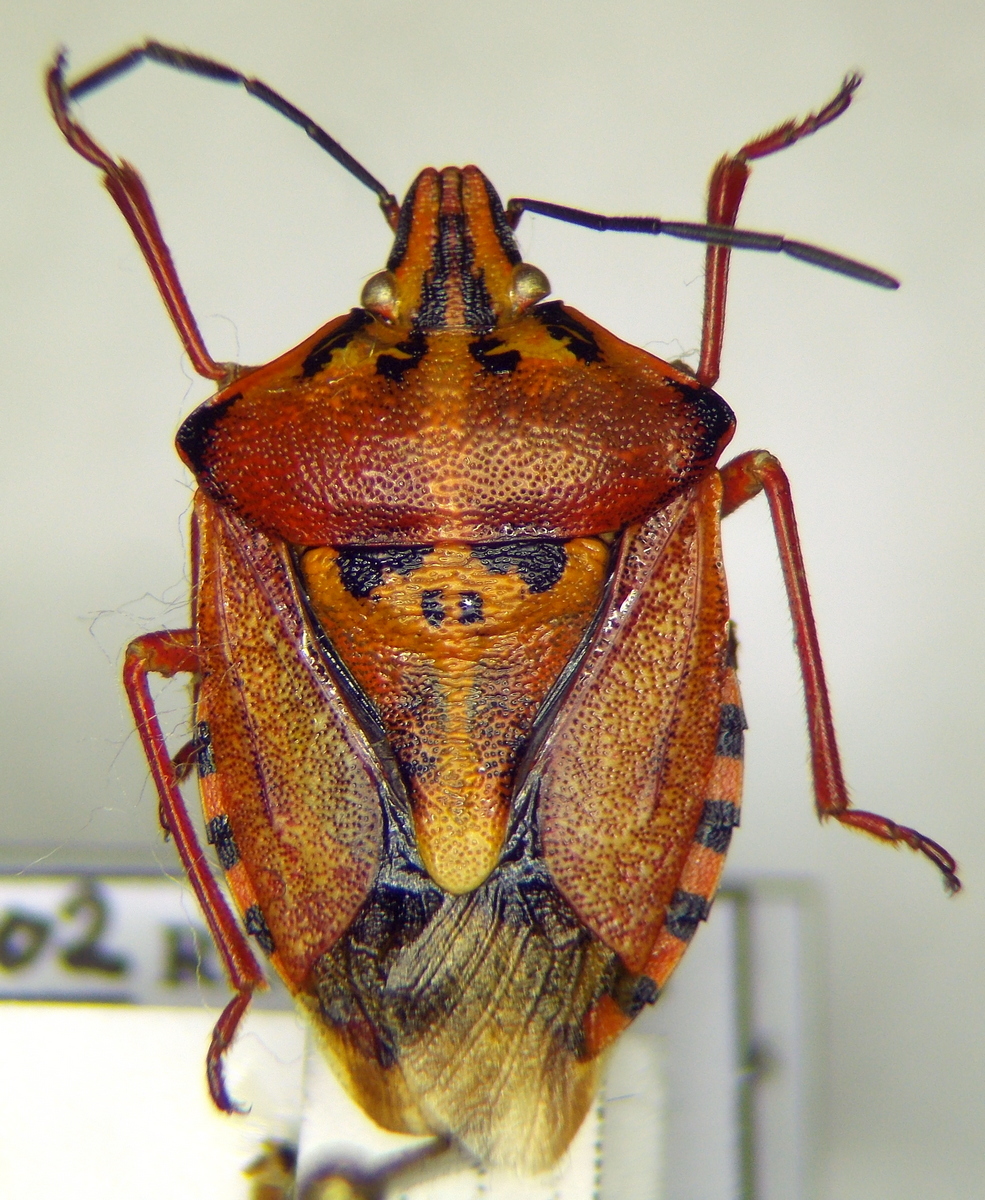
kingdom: Animalia
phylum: Arthropoda
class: Insecta
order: Hemiptera
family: Pentatomidae
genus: Carpocoris
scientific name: Carpocoris mediterraneus
